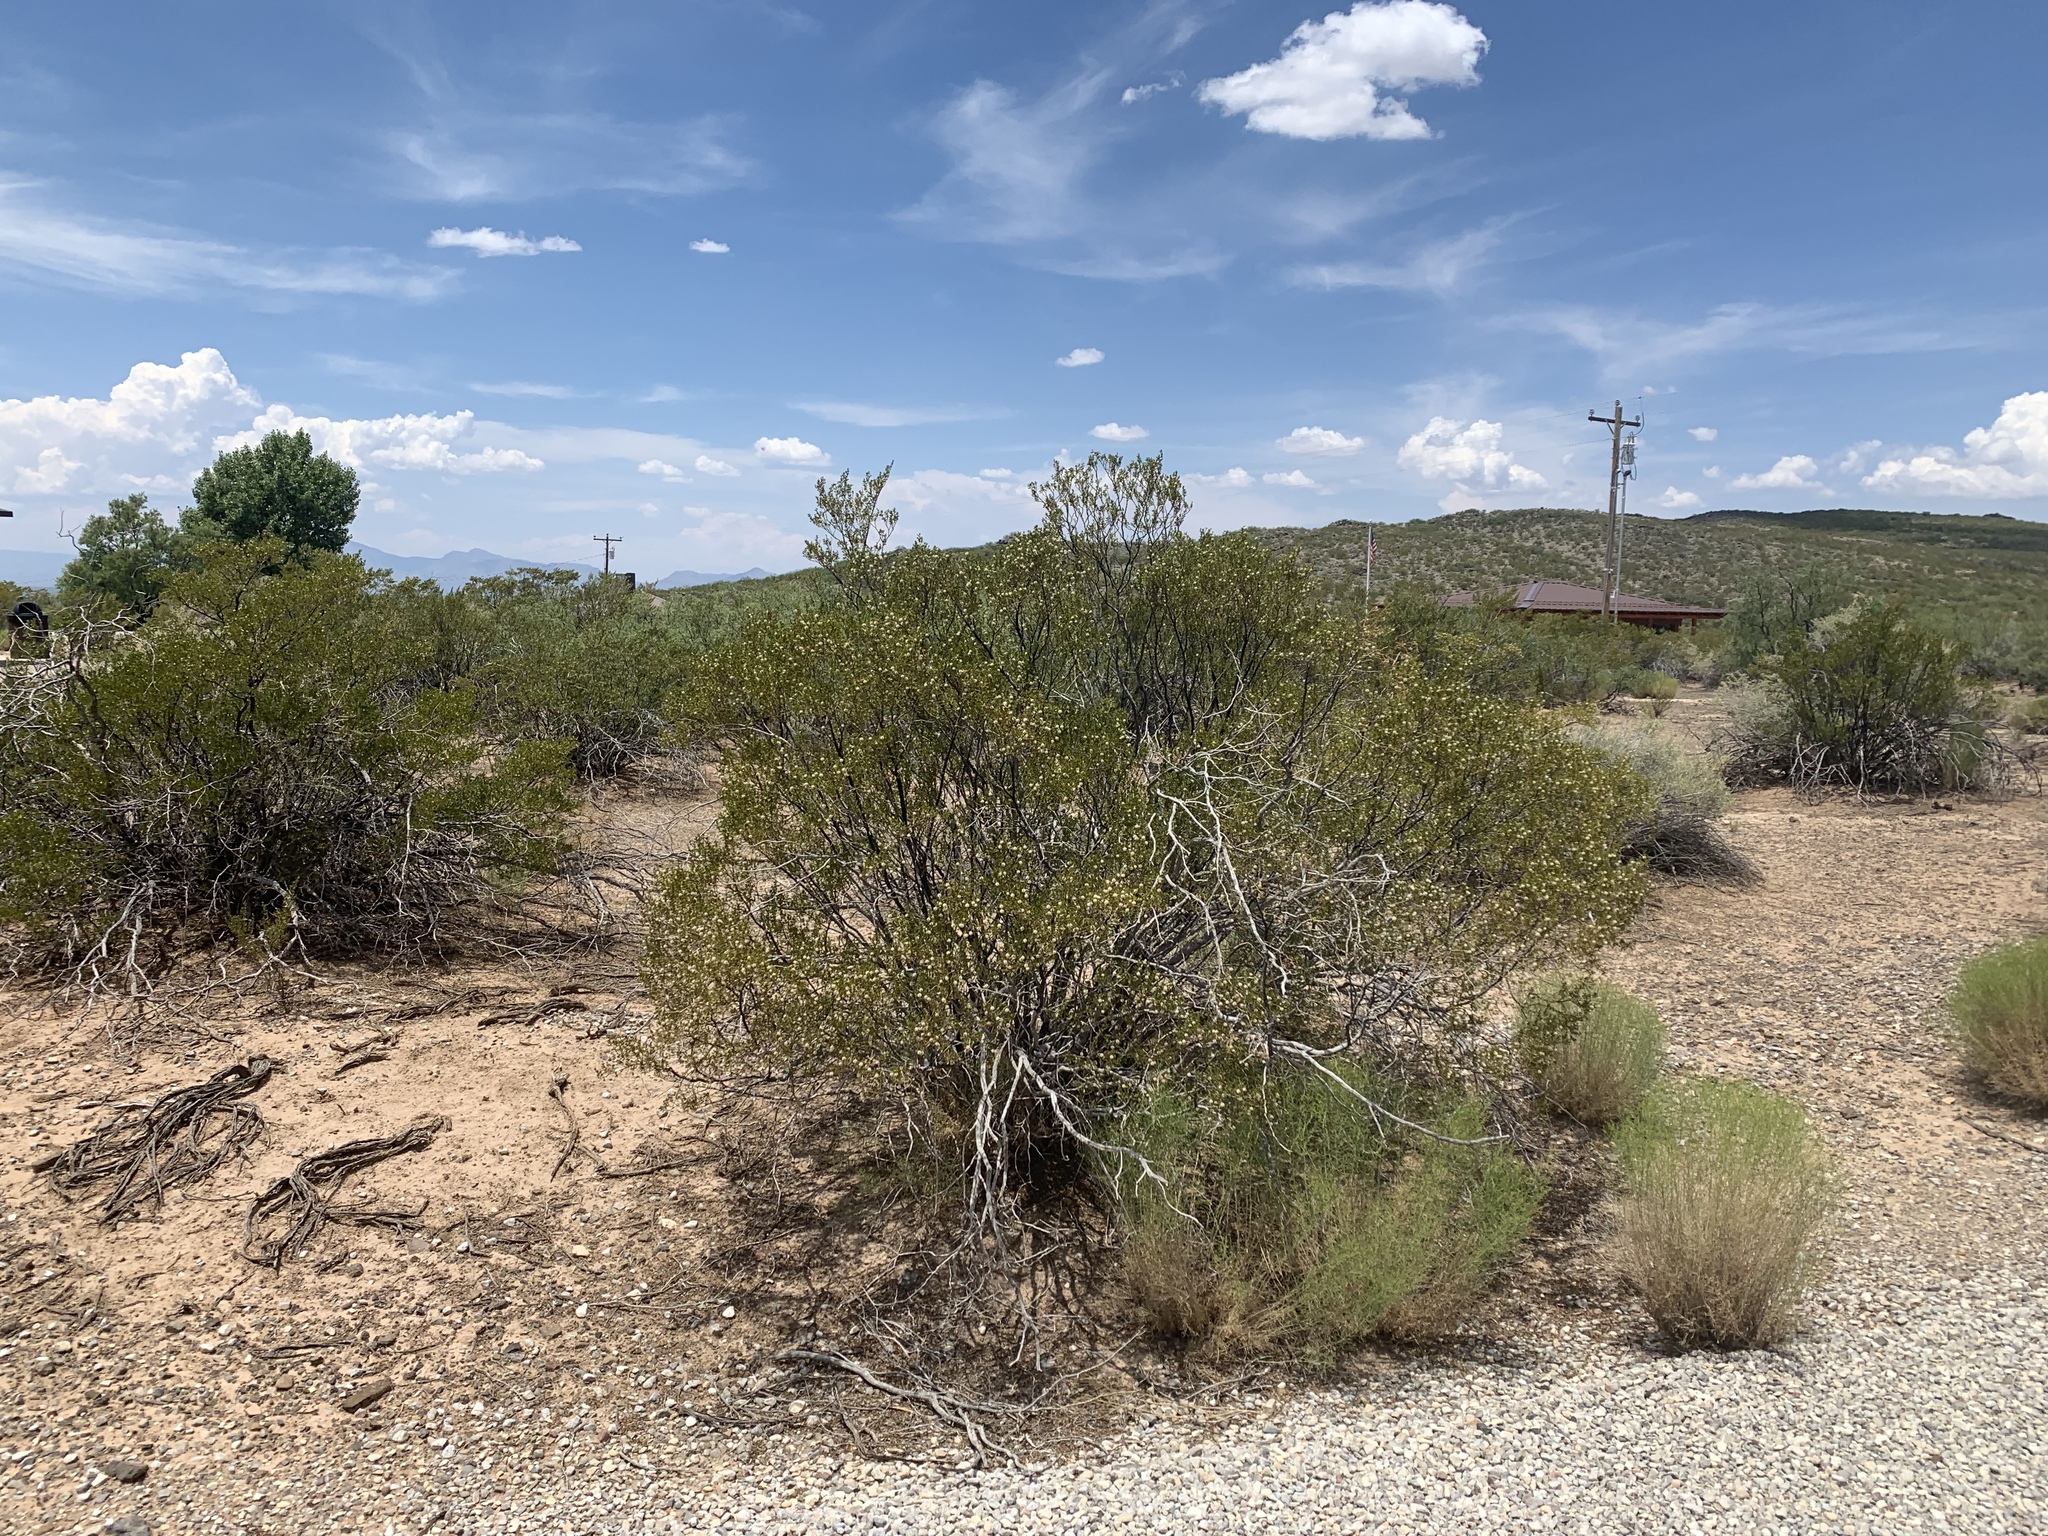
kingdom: Plantae
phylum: Tracheophyta
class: Magnoliopsida
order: Zygophyllales
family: Zygophyllaceae
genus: Larrea
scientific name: Larrea tridentata
